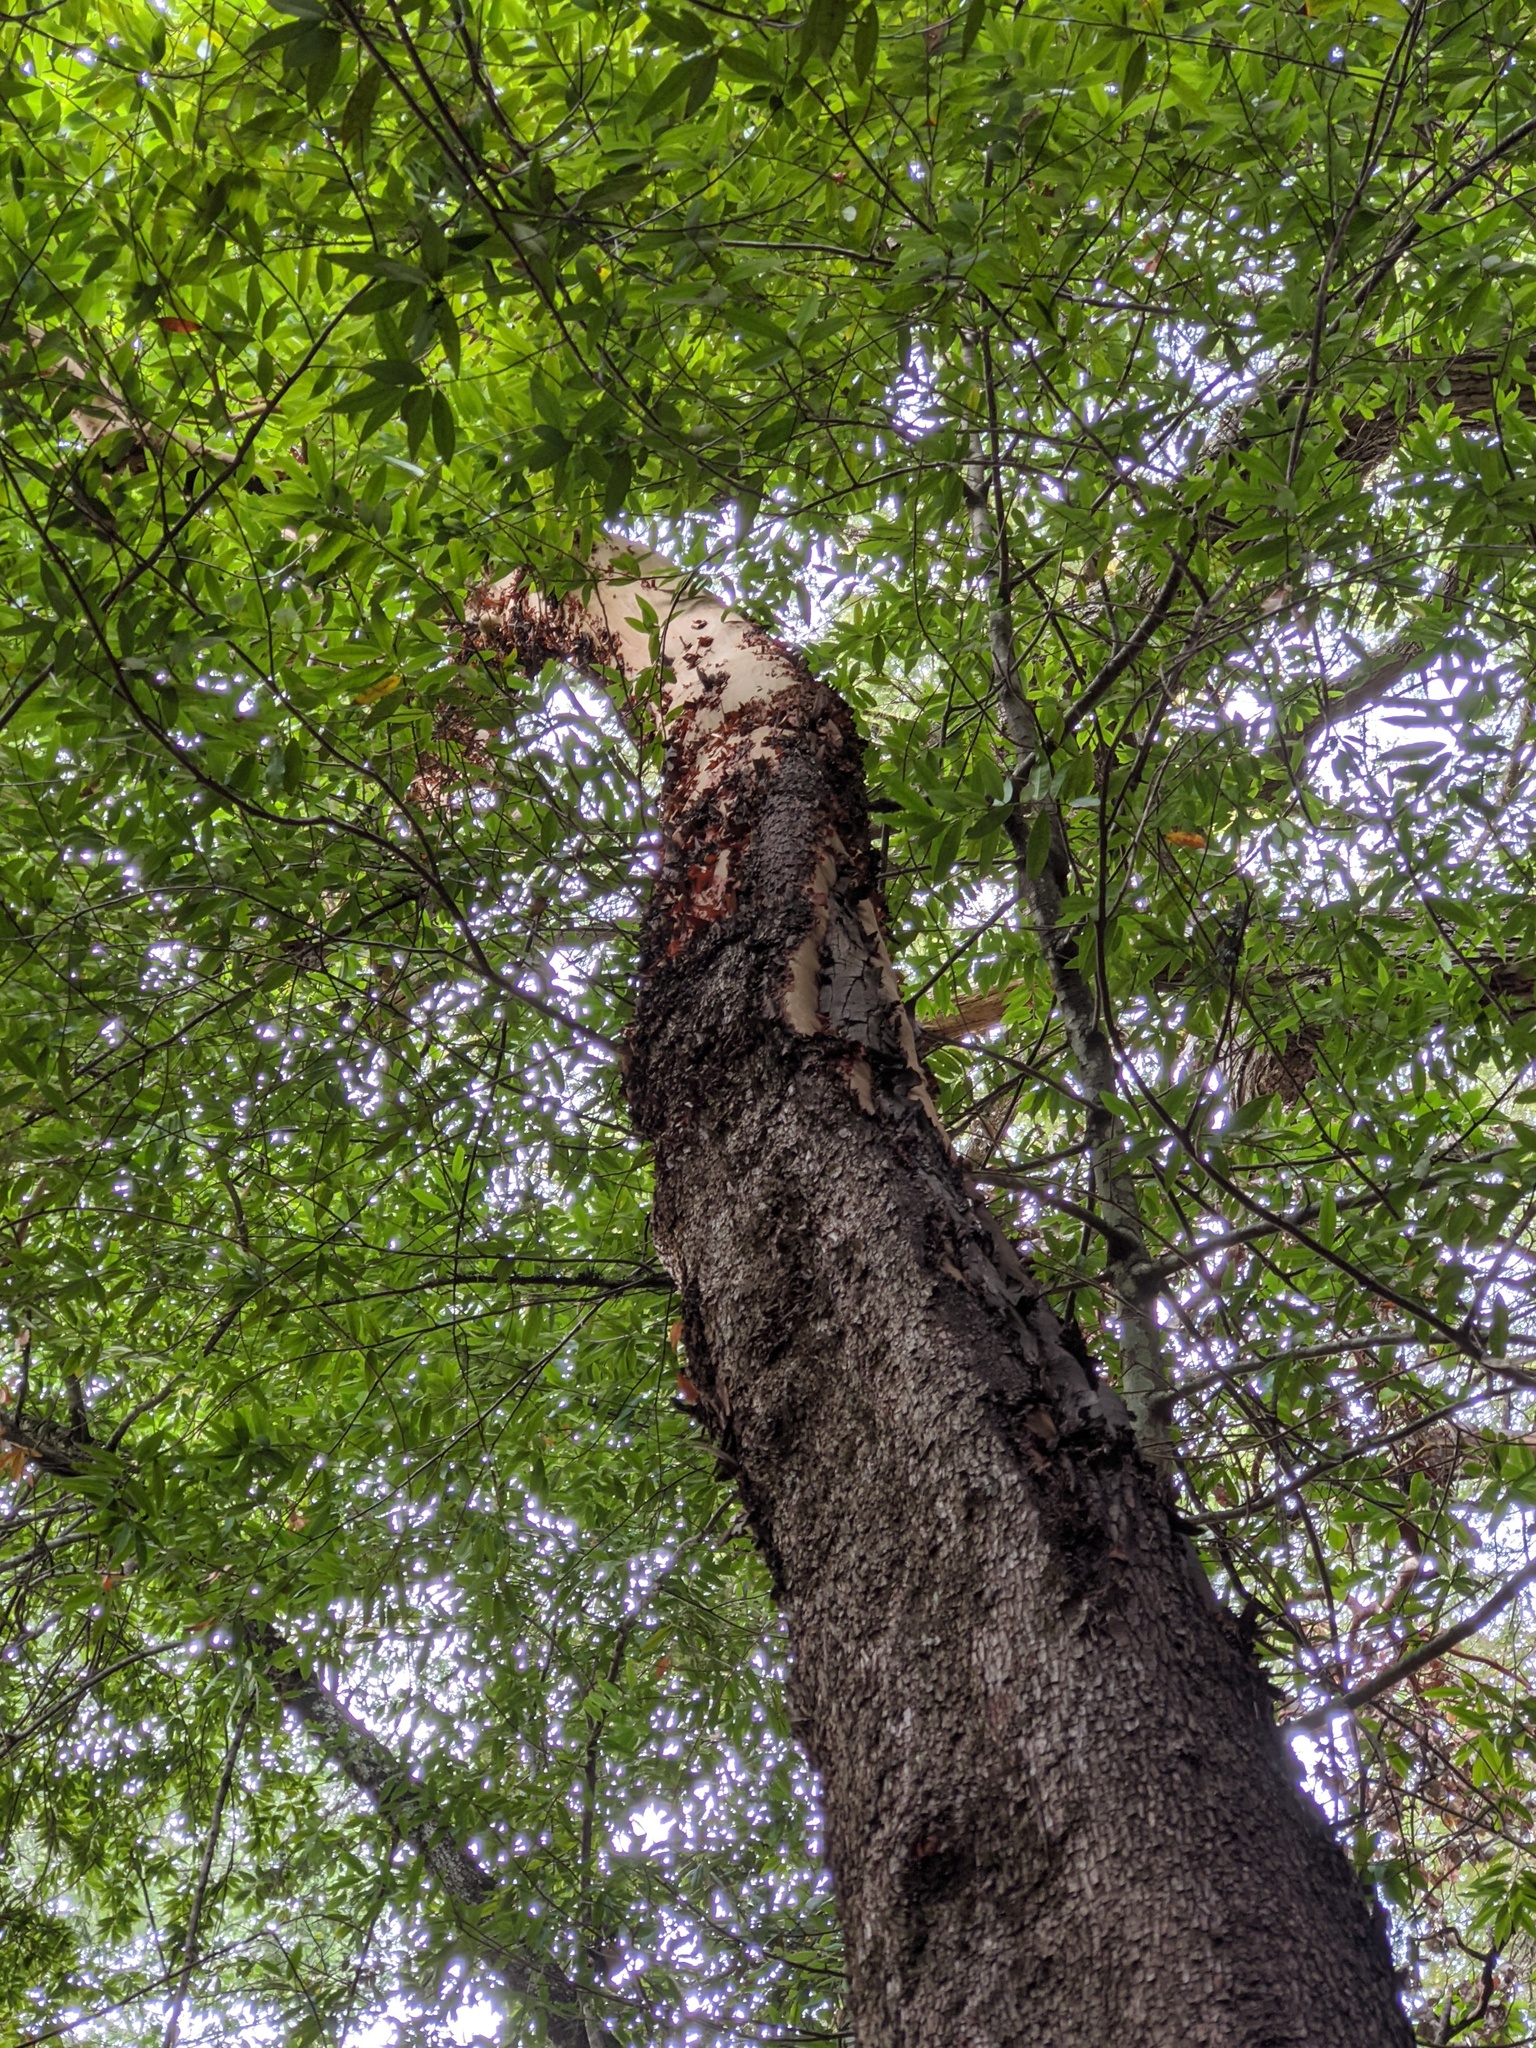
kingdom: Plantae
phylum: Tracheophyta
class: Magnoliopsida
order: Ericales
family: Ericaceae
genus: Arbutus
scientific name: Arbutus menziesii
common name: Pacific madrone
